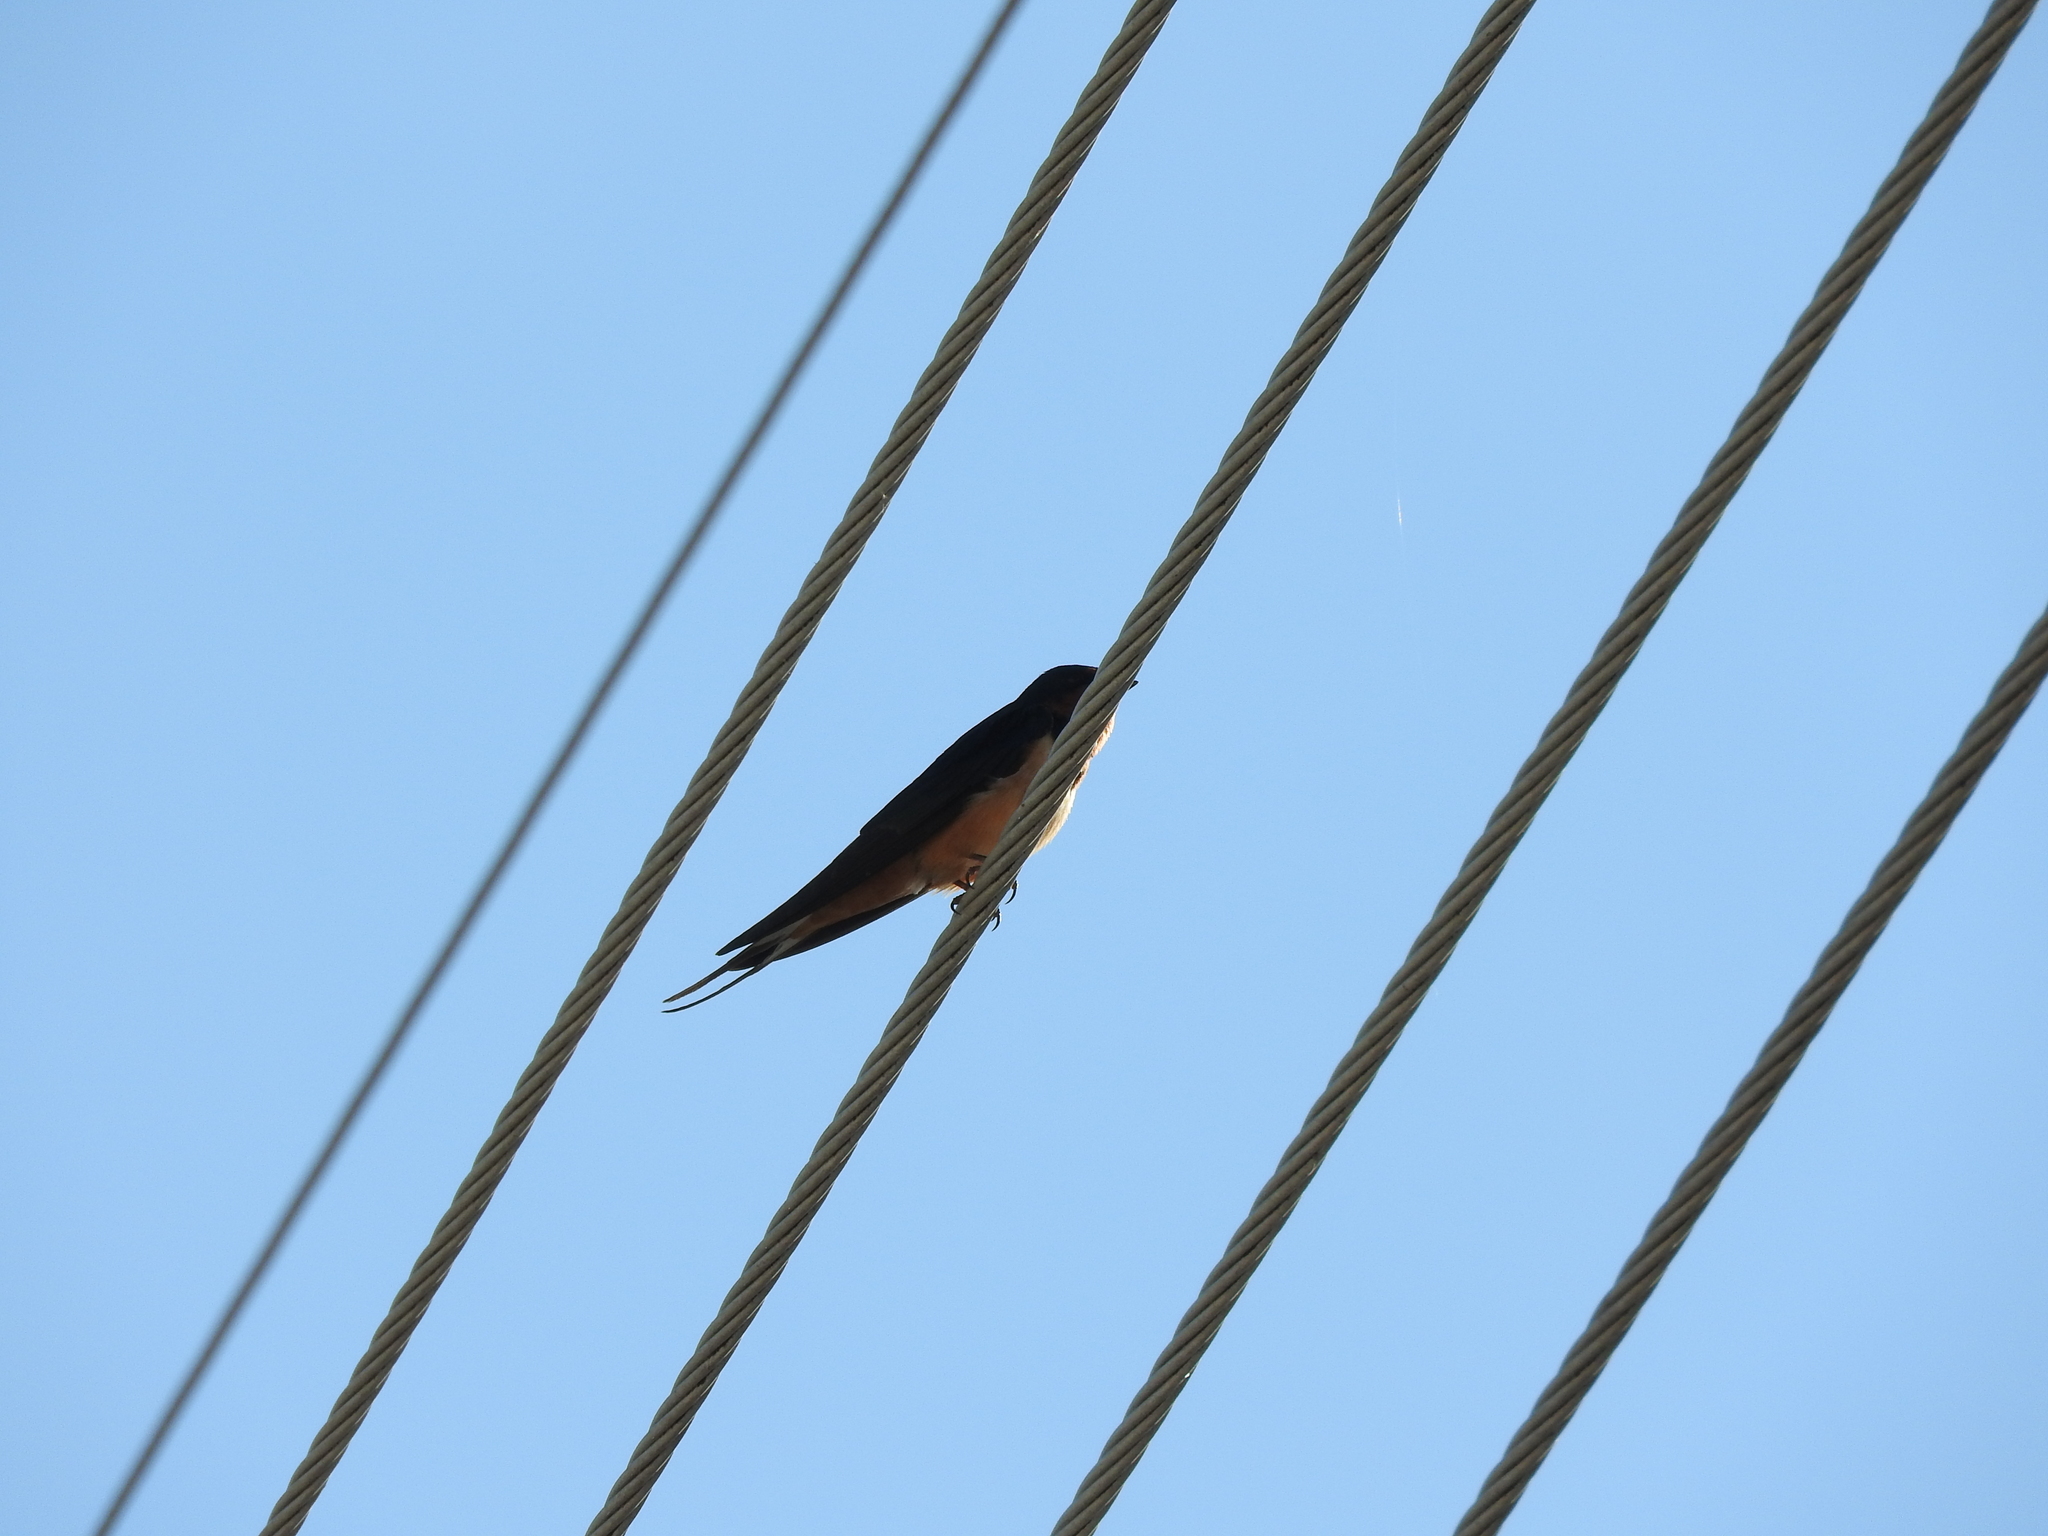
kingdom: Animalia
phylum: Chordata
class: Aves
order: Passeriformes
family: Hirundinidae
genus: Hirundo
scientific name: Hirundo rustica
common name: Barn swallow
